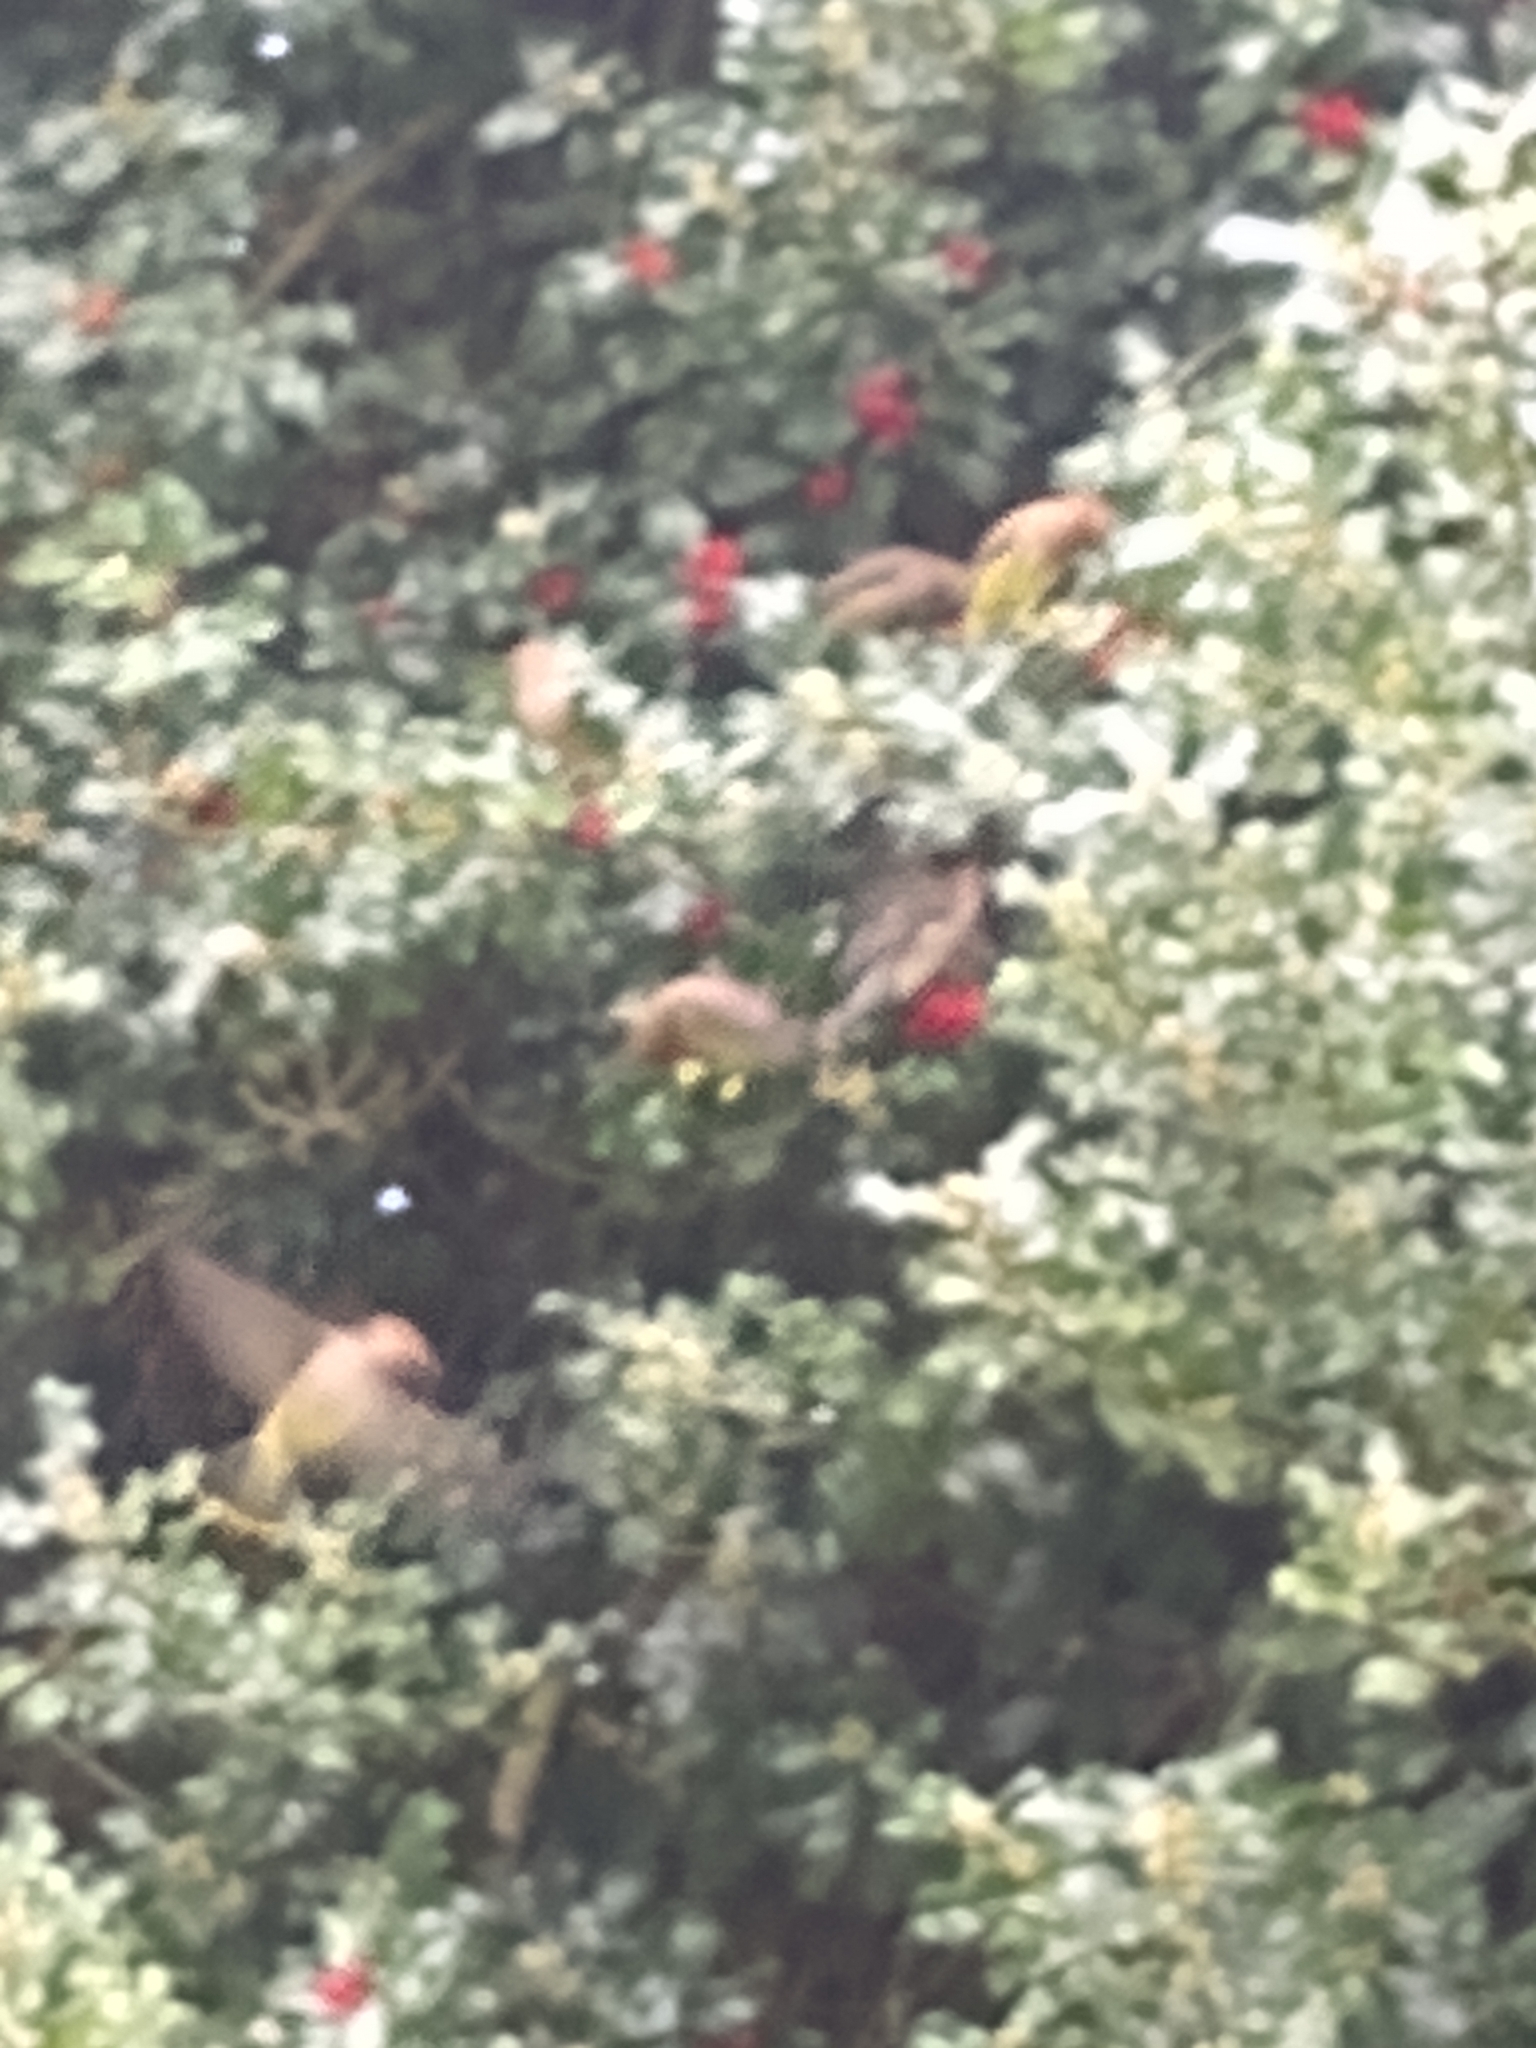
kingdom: Animalia
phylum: Chordata
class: Aves
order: Passeriformes
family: Bombycillidae
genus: Bombycilla
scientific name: Bombycilla cedrorum
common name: Cedar waxwing
